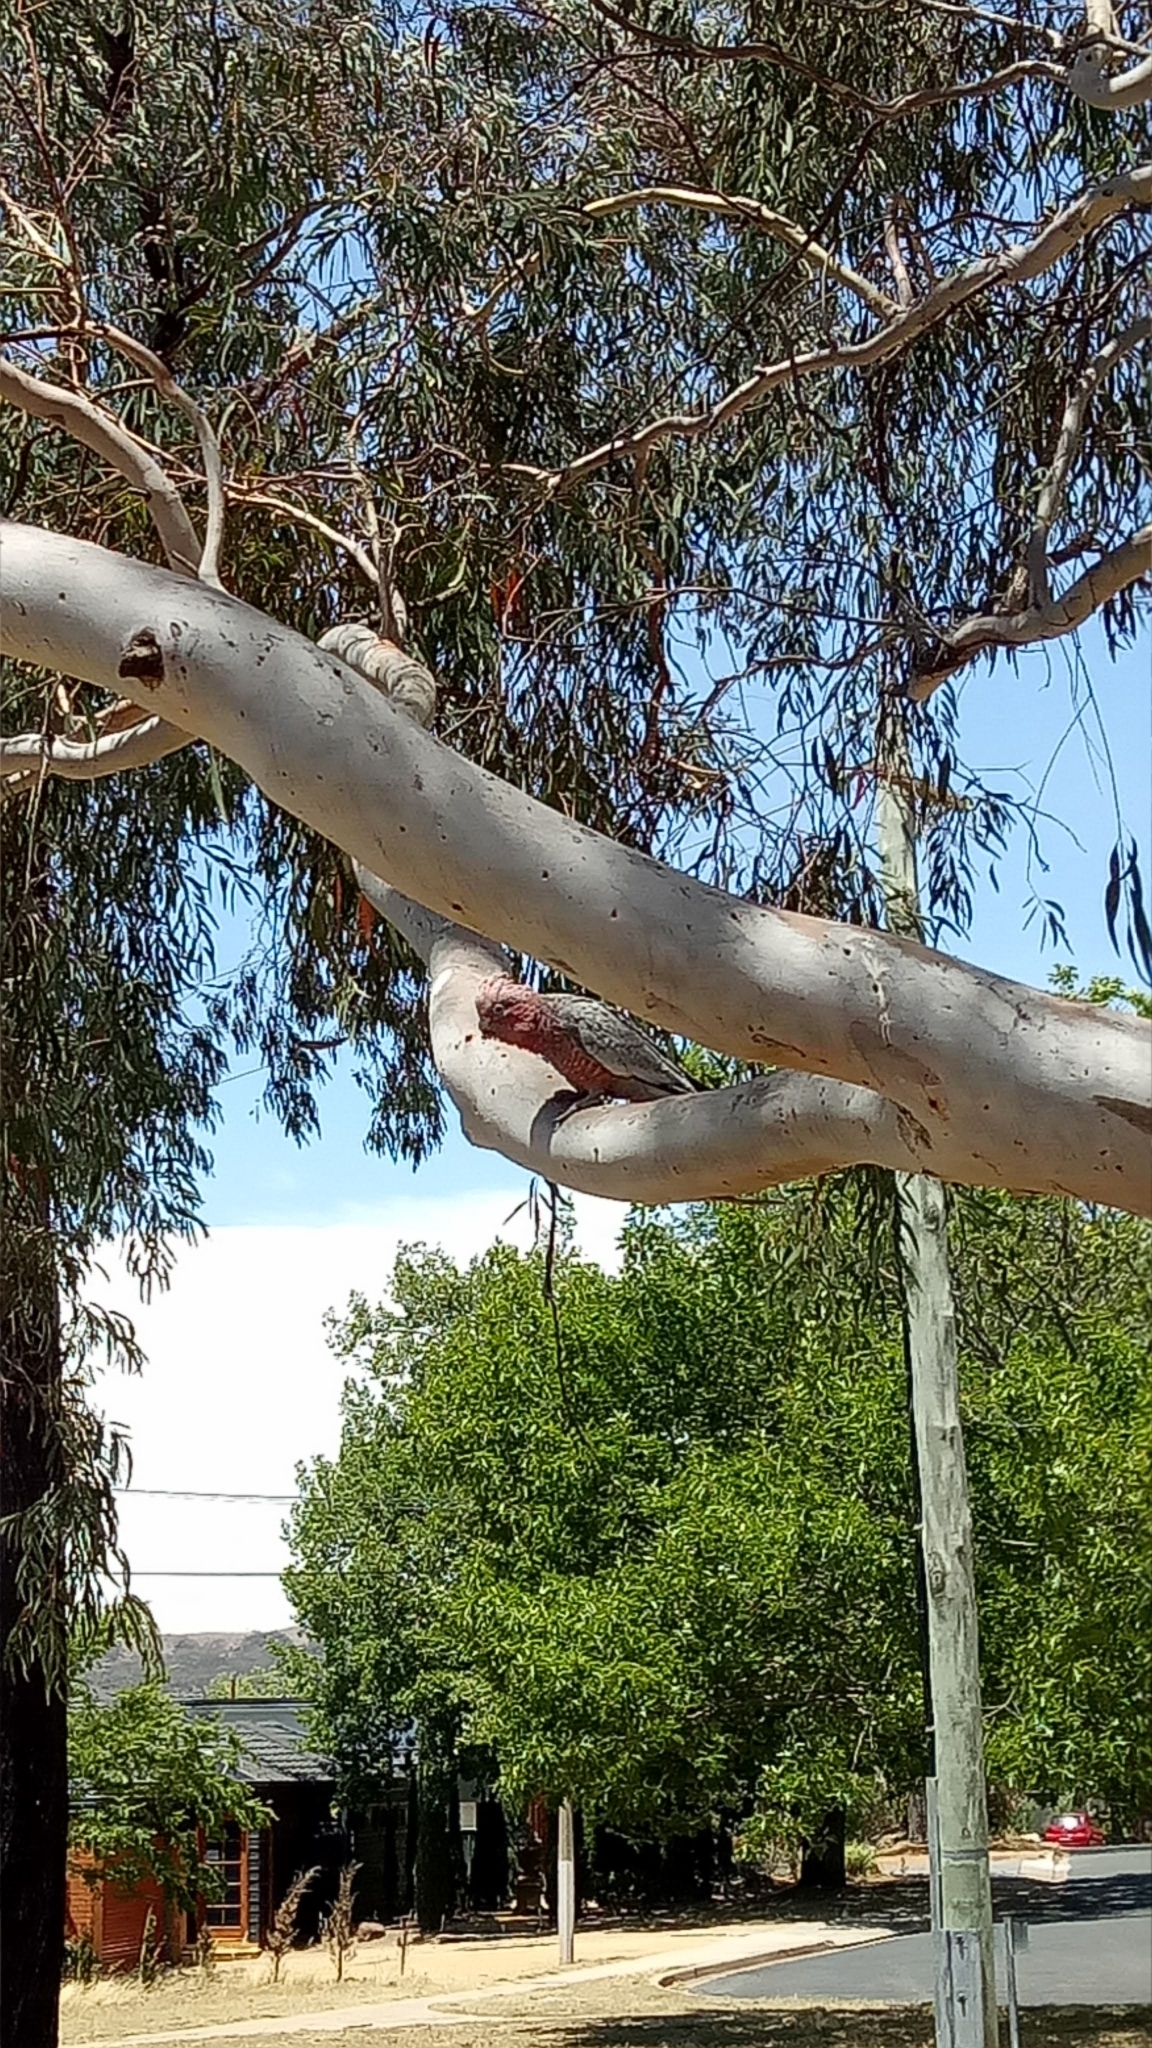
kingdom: Animalia
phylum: Chordata
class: Aves
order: Psittaciformes
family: Psittacidae
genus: Eolophus
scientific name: Eolophus roseicapilla
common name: Galah
